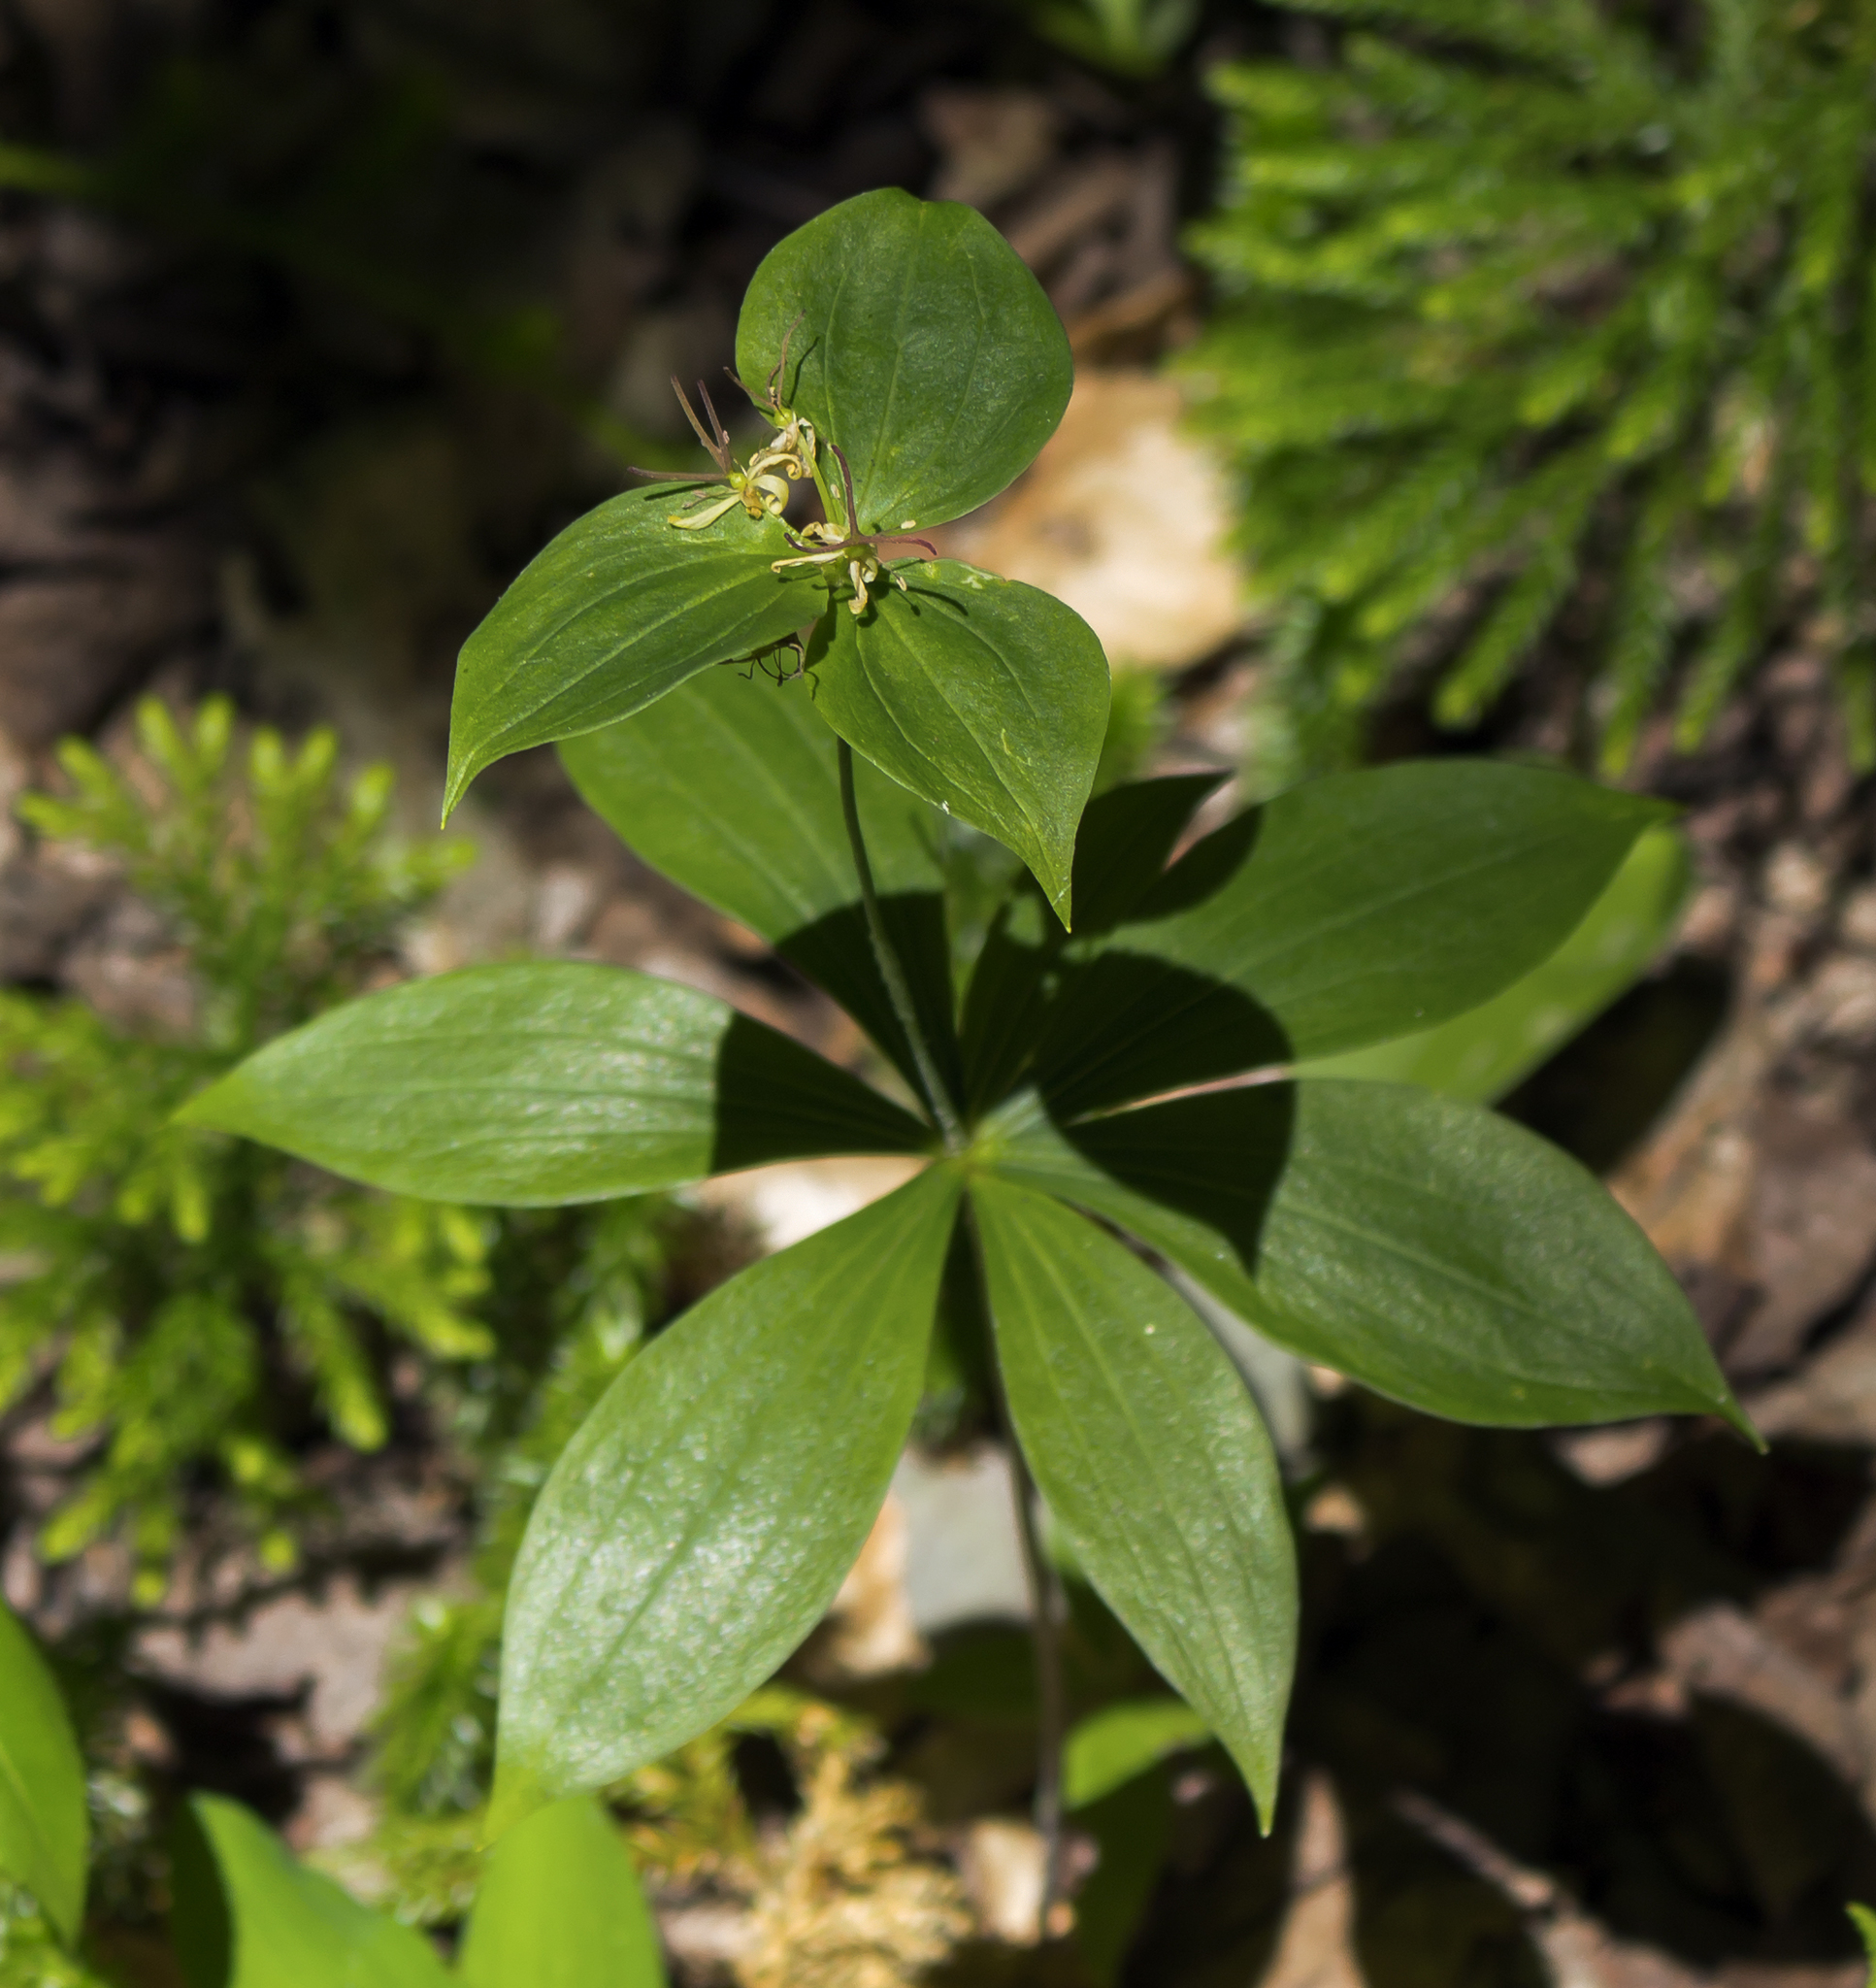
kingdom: Plantae
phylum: Tracheophyta
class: Liliopsida
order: Liliales
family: Liliaceae
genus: Medeola
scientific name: Medeola virginiana
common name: Indian cucumber-root
